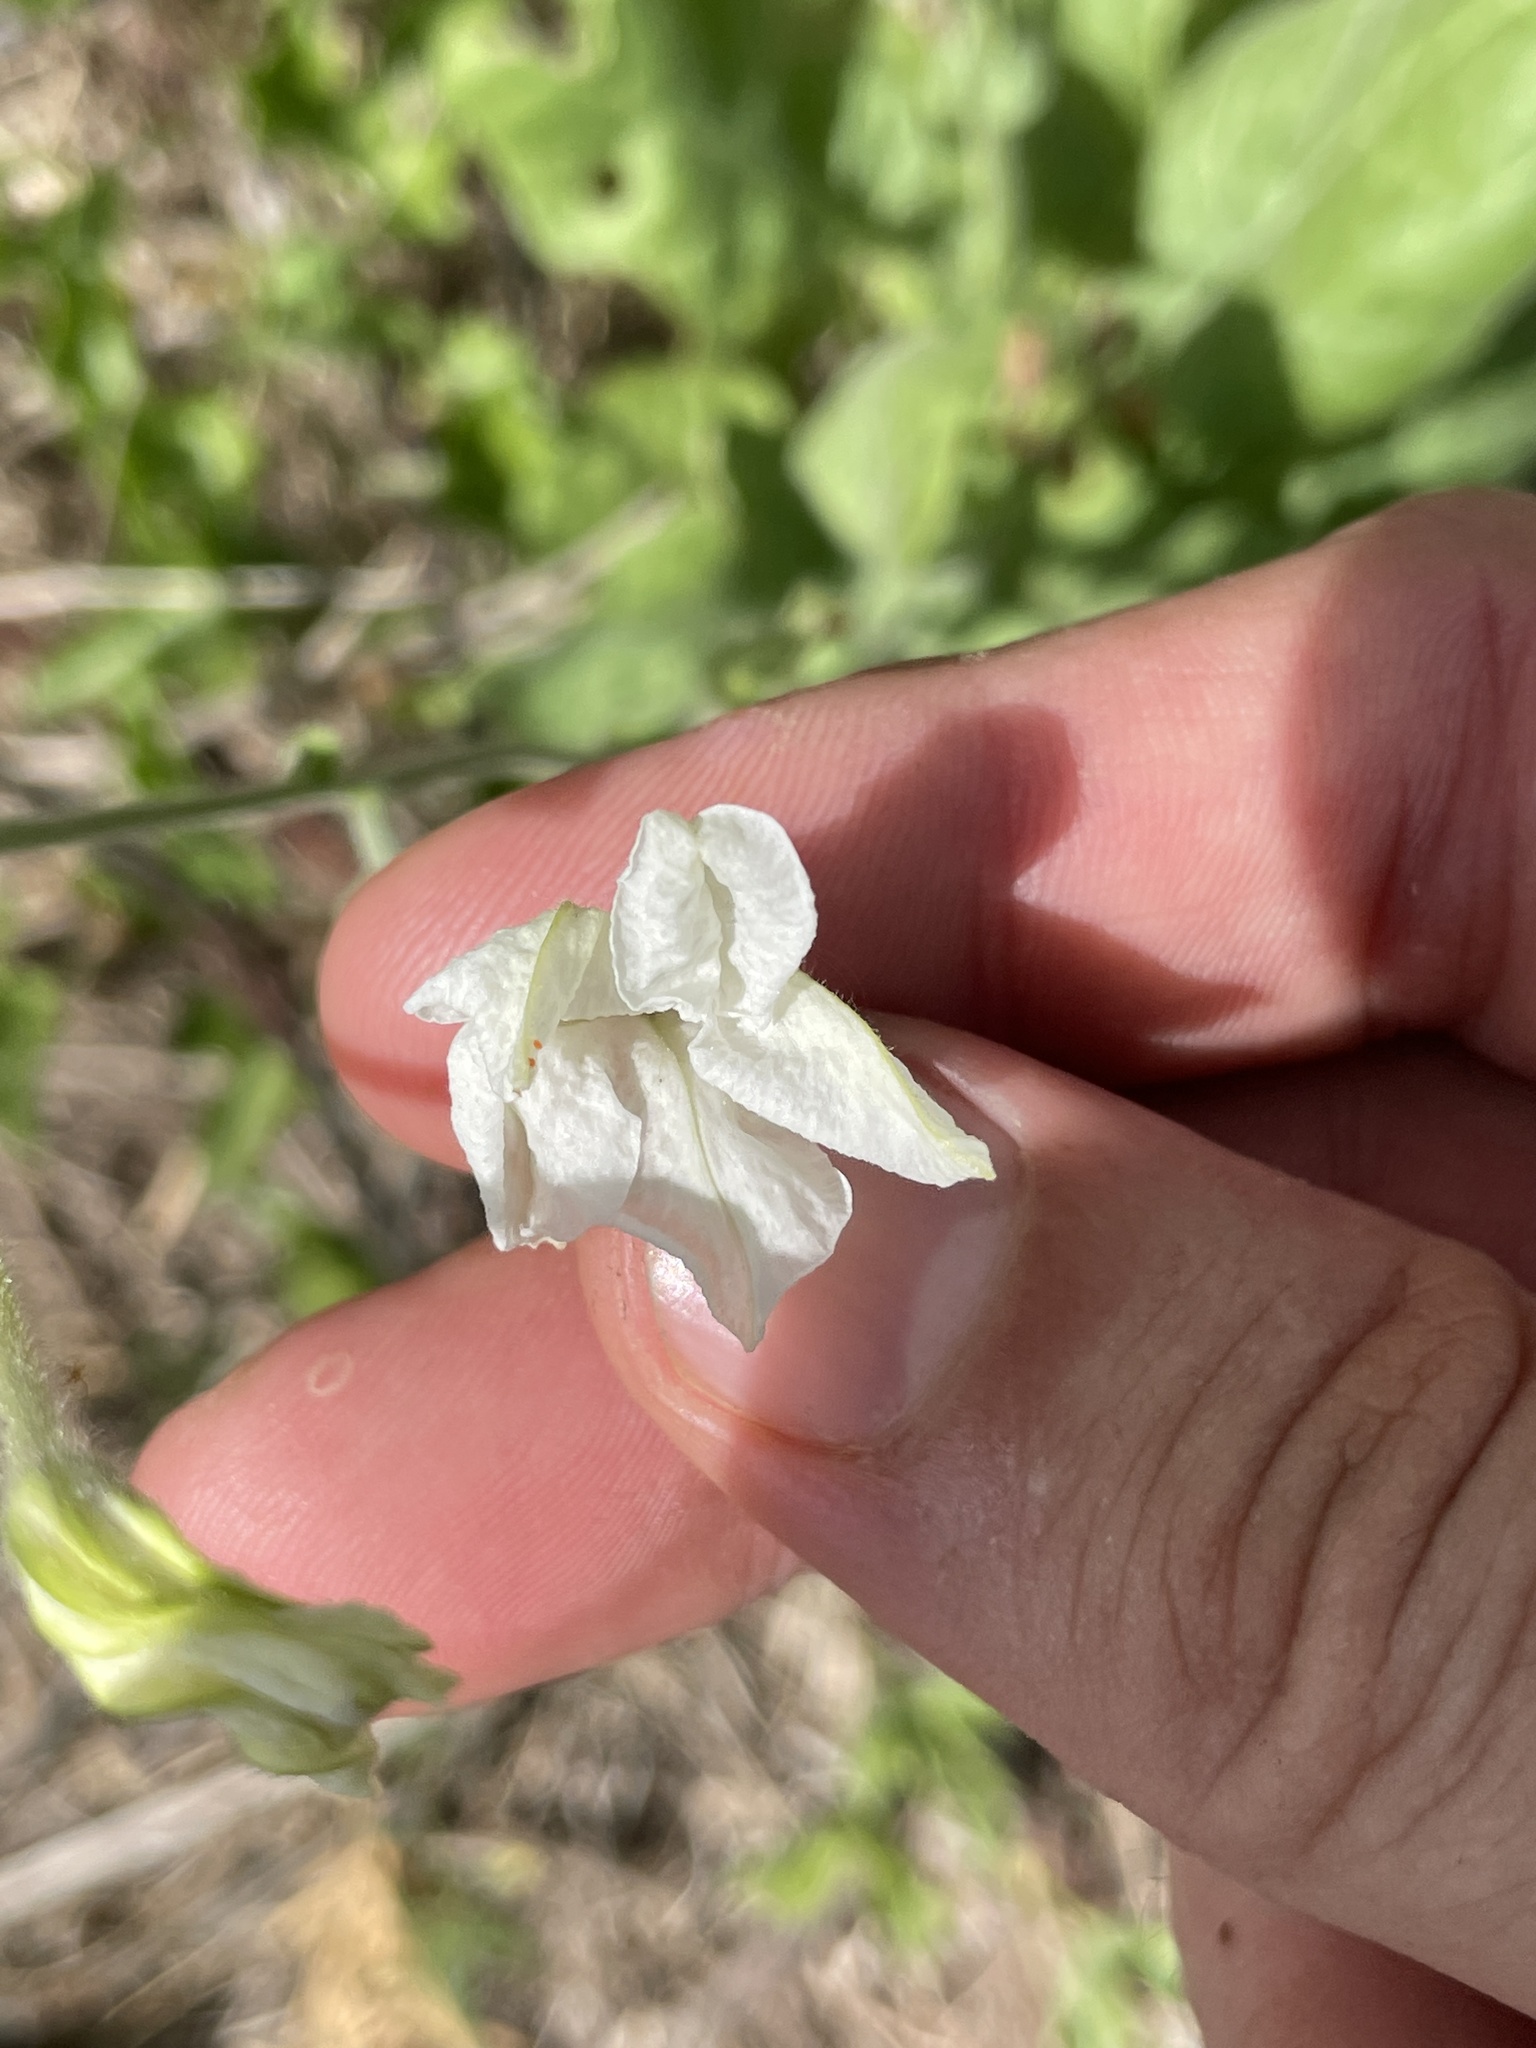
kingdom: Plantae
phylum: Tracheophyta
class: Magnoliopsida
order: Solanales
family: Solanaceae
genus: Nicotiana
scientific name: Nicotiana repanda
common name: Fiddle-leaf tobacco
